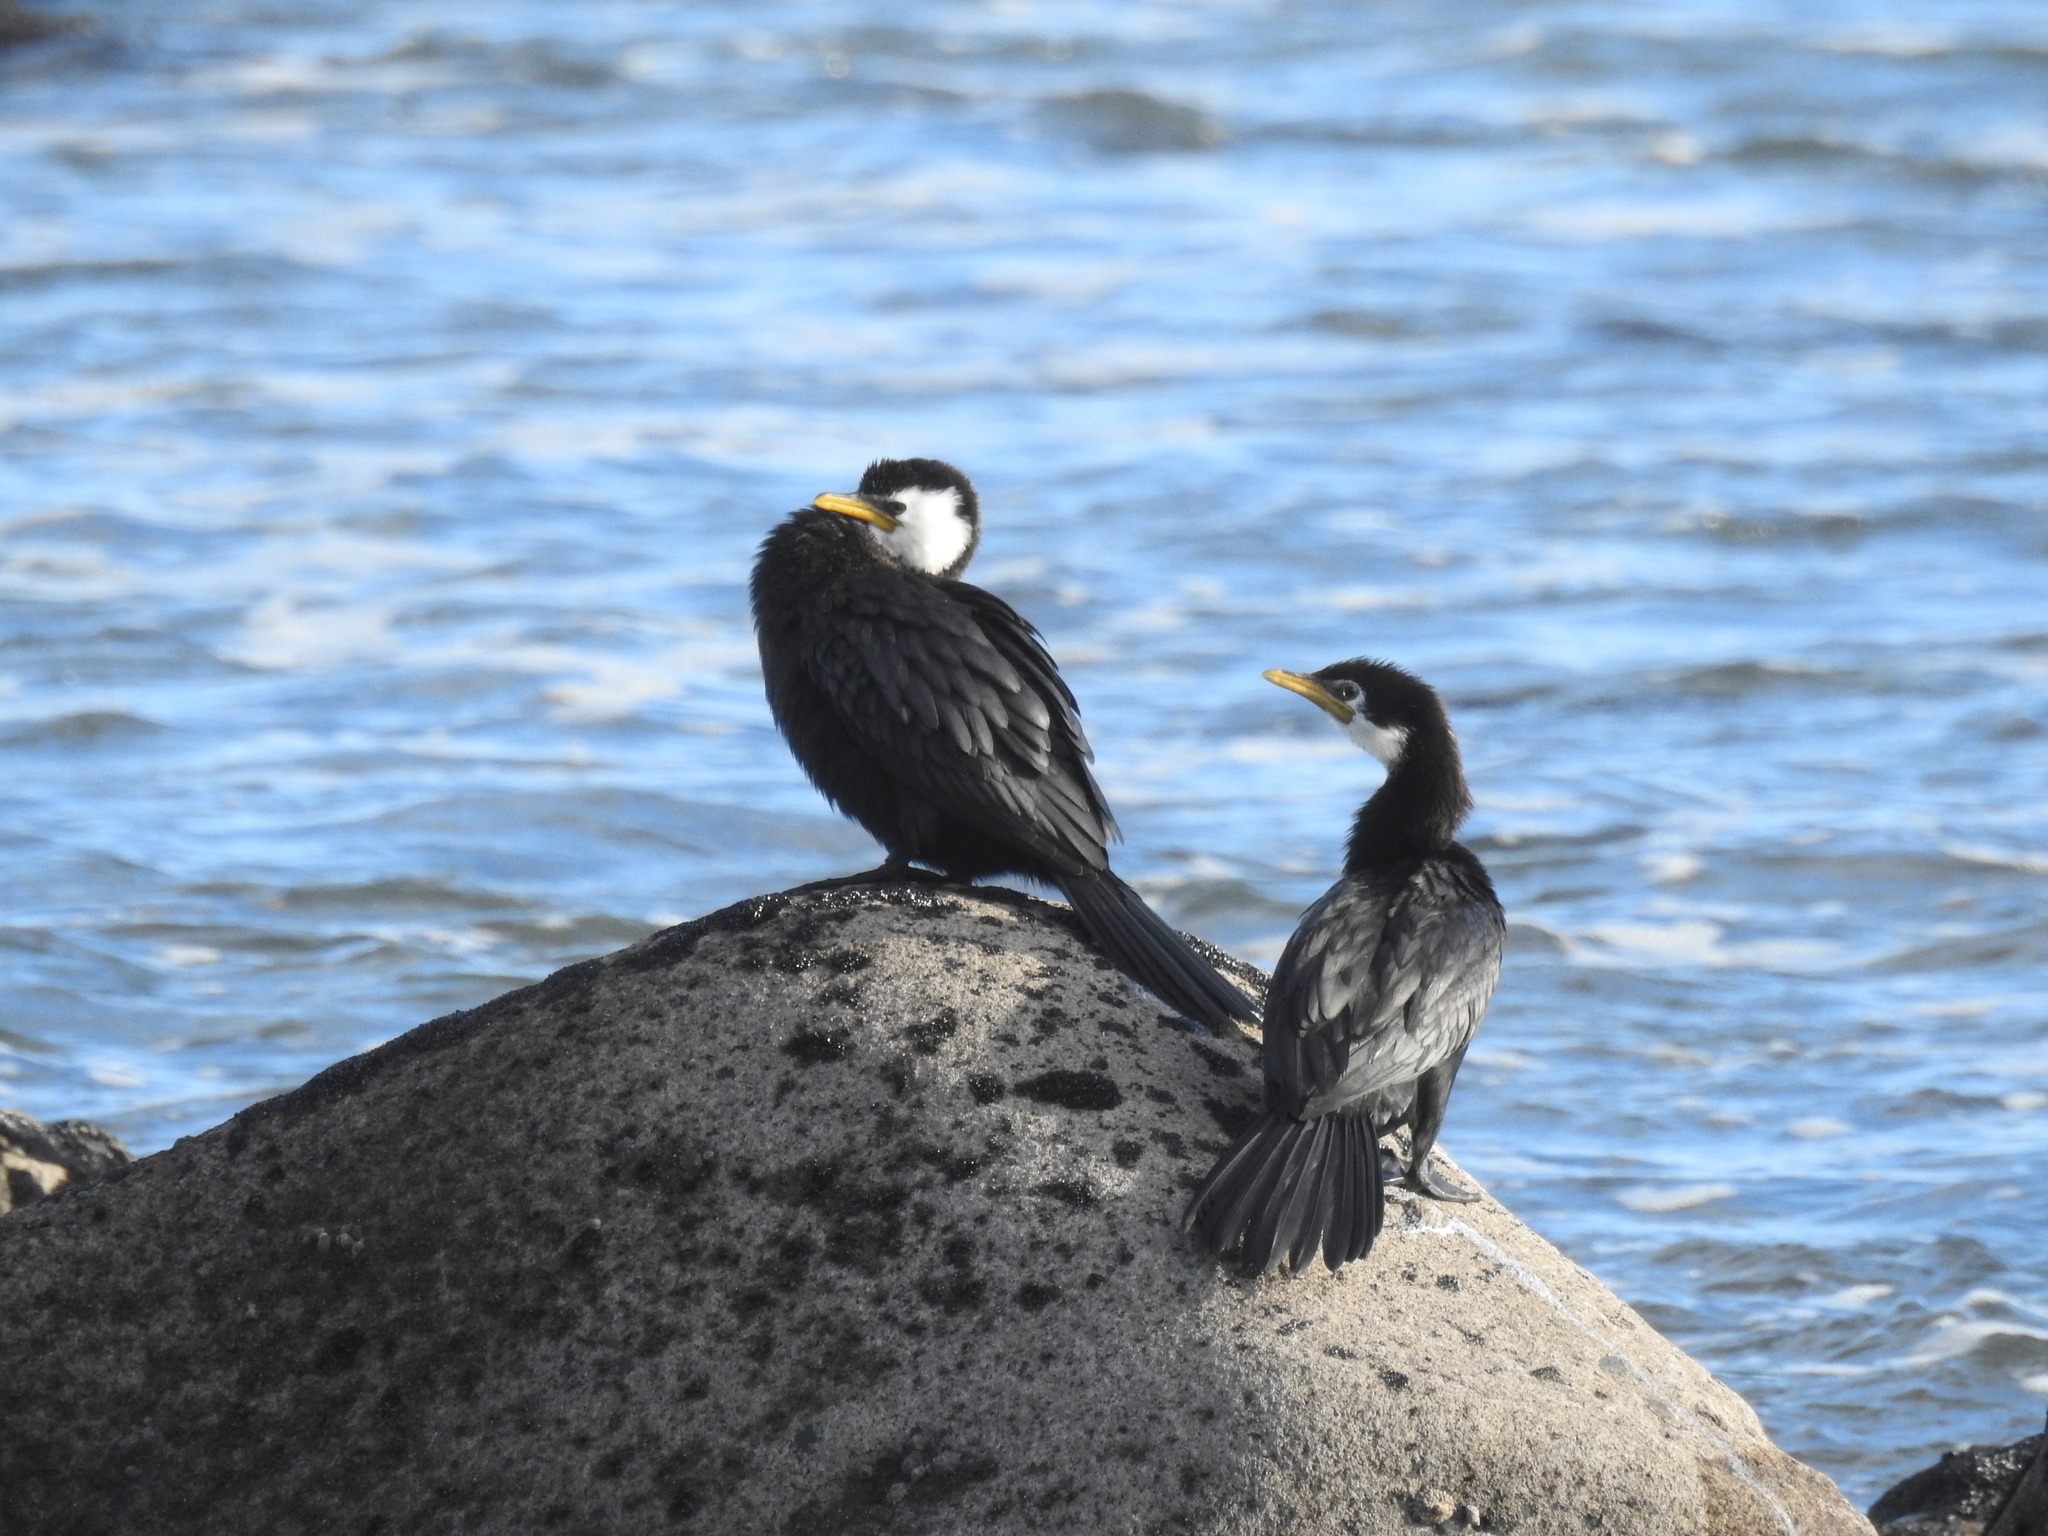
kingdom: Animalia
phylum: Chordata
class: Aves
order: Suliformes
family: Phalacrocoracidae
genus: Microcarbo
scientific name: Microcarbo melanoleucos
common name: Little pied cormorant
